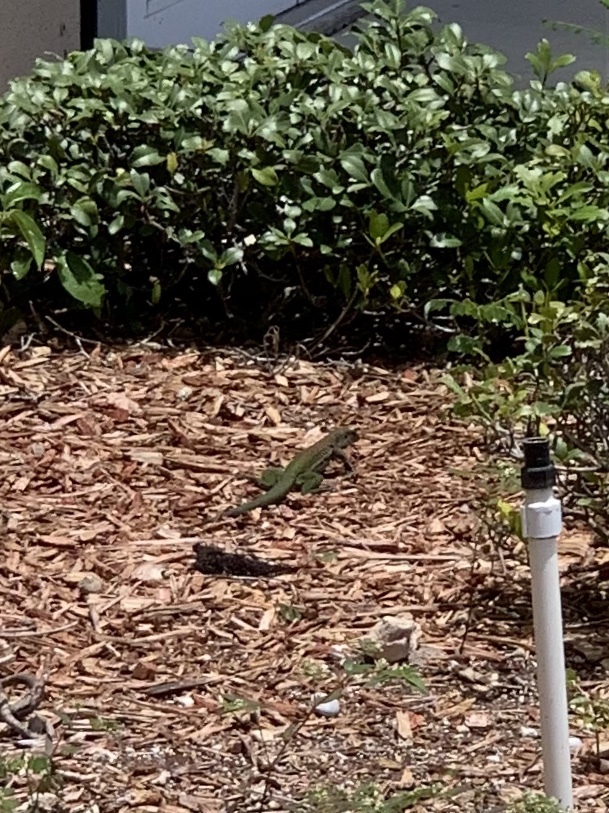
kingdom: Animalia
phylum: Chordata
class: Squamata
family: Teiidae
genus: Ameiva
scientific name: Ameiva ameiva
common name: Giant ameiva
